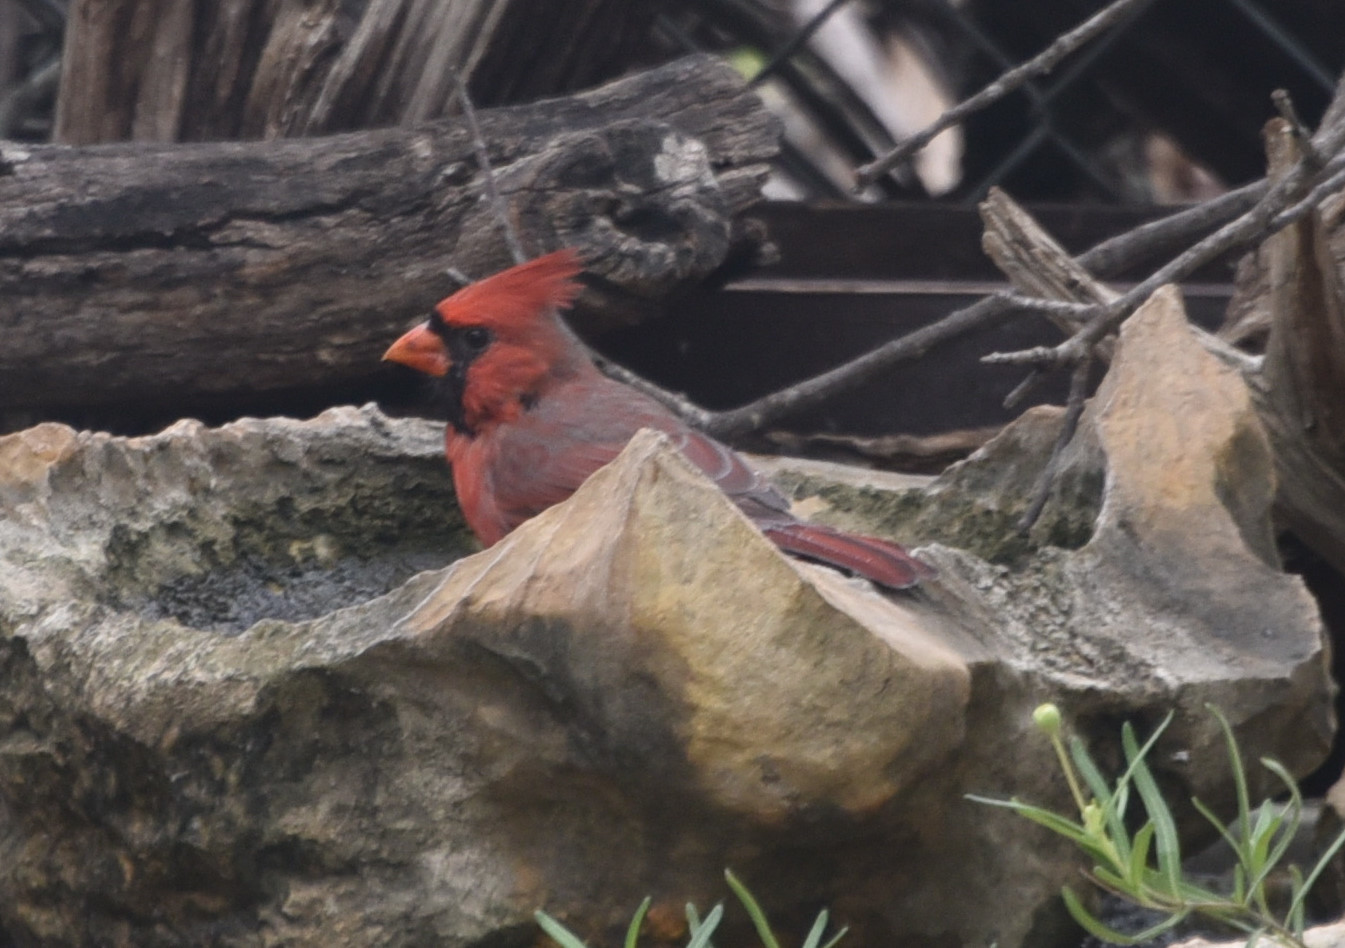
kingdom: Animalia
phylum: Chordata
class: Aves
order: Passeriformes
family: Cardinalidae
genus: Cardinalis
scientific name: Cardinalis cardinalis
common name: Northern cardinal
